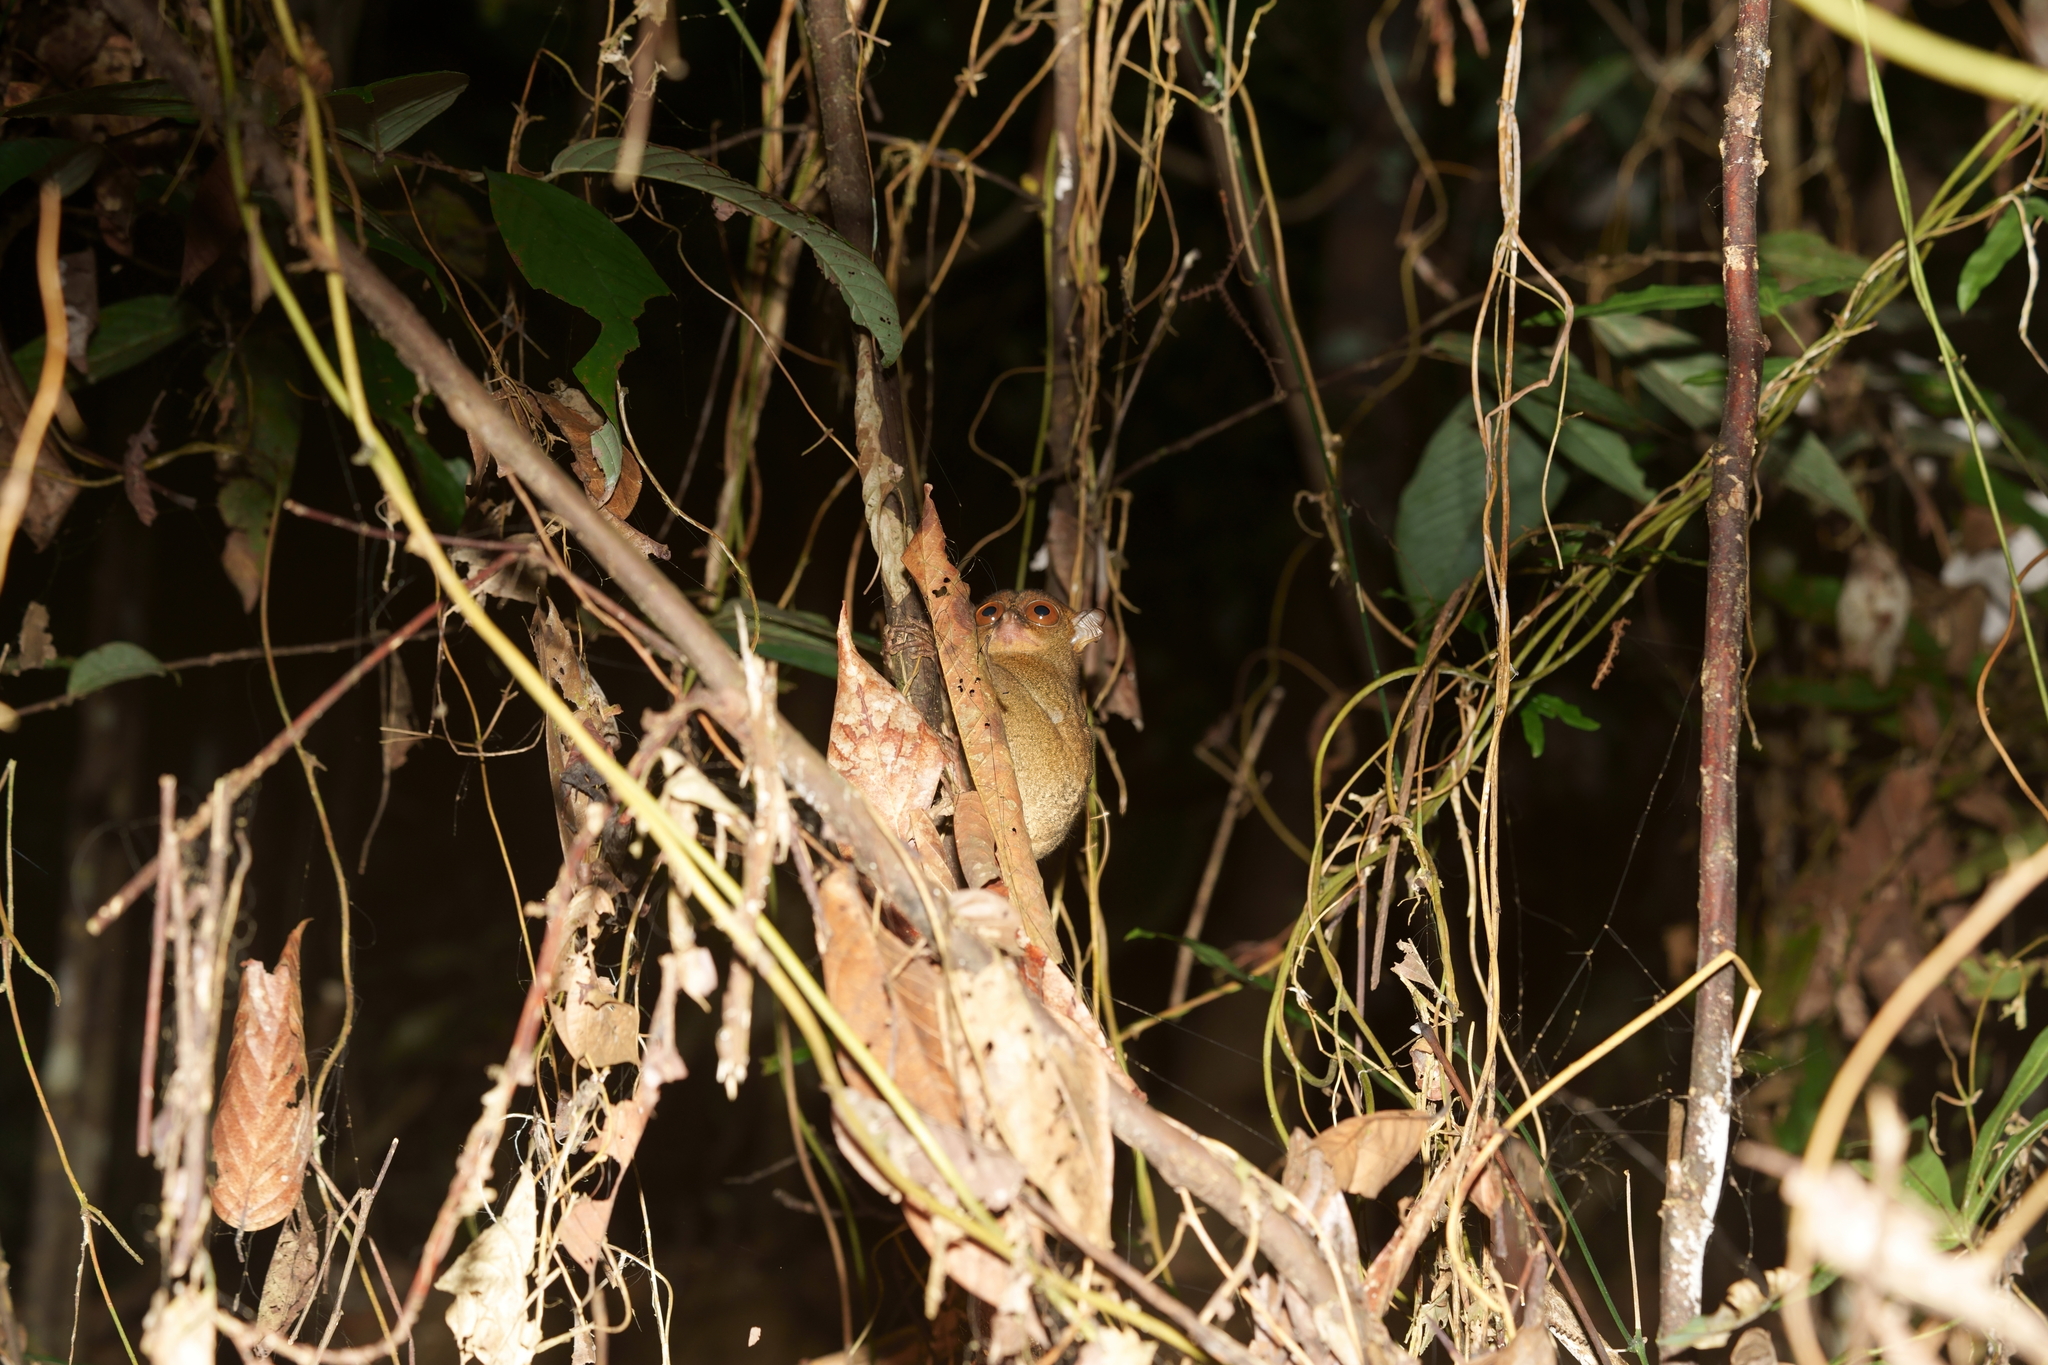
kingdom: Animalia
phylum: Chordata
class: Mammalia
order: Primates
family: Tarsiidae
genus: Cephalopachus
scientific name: Cephalopachus bancanus
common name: Western tarsier
